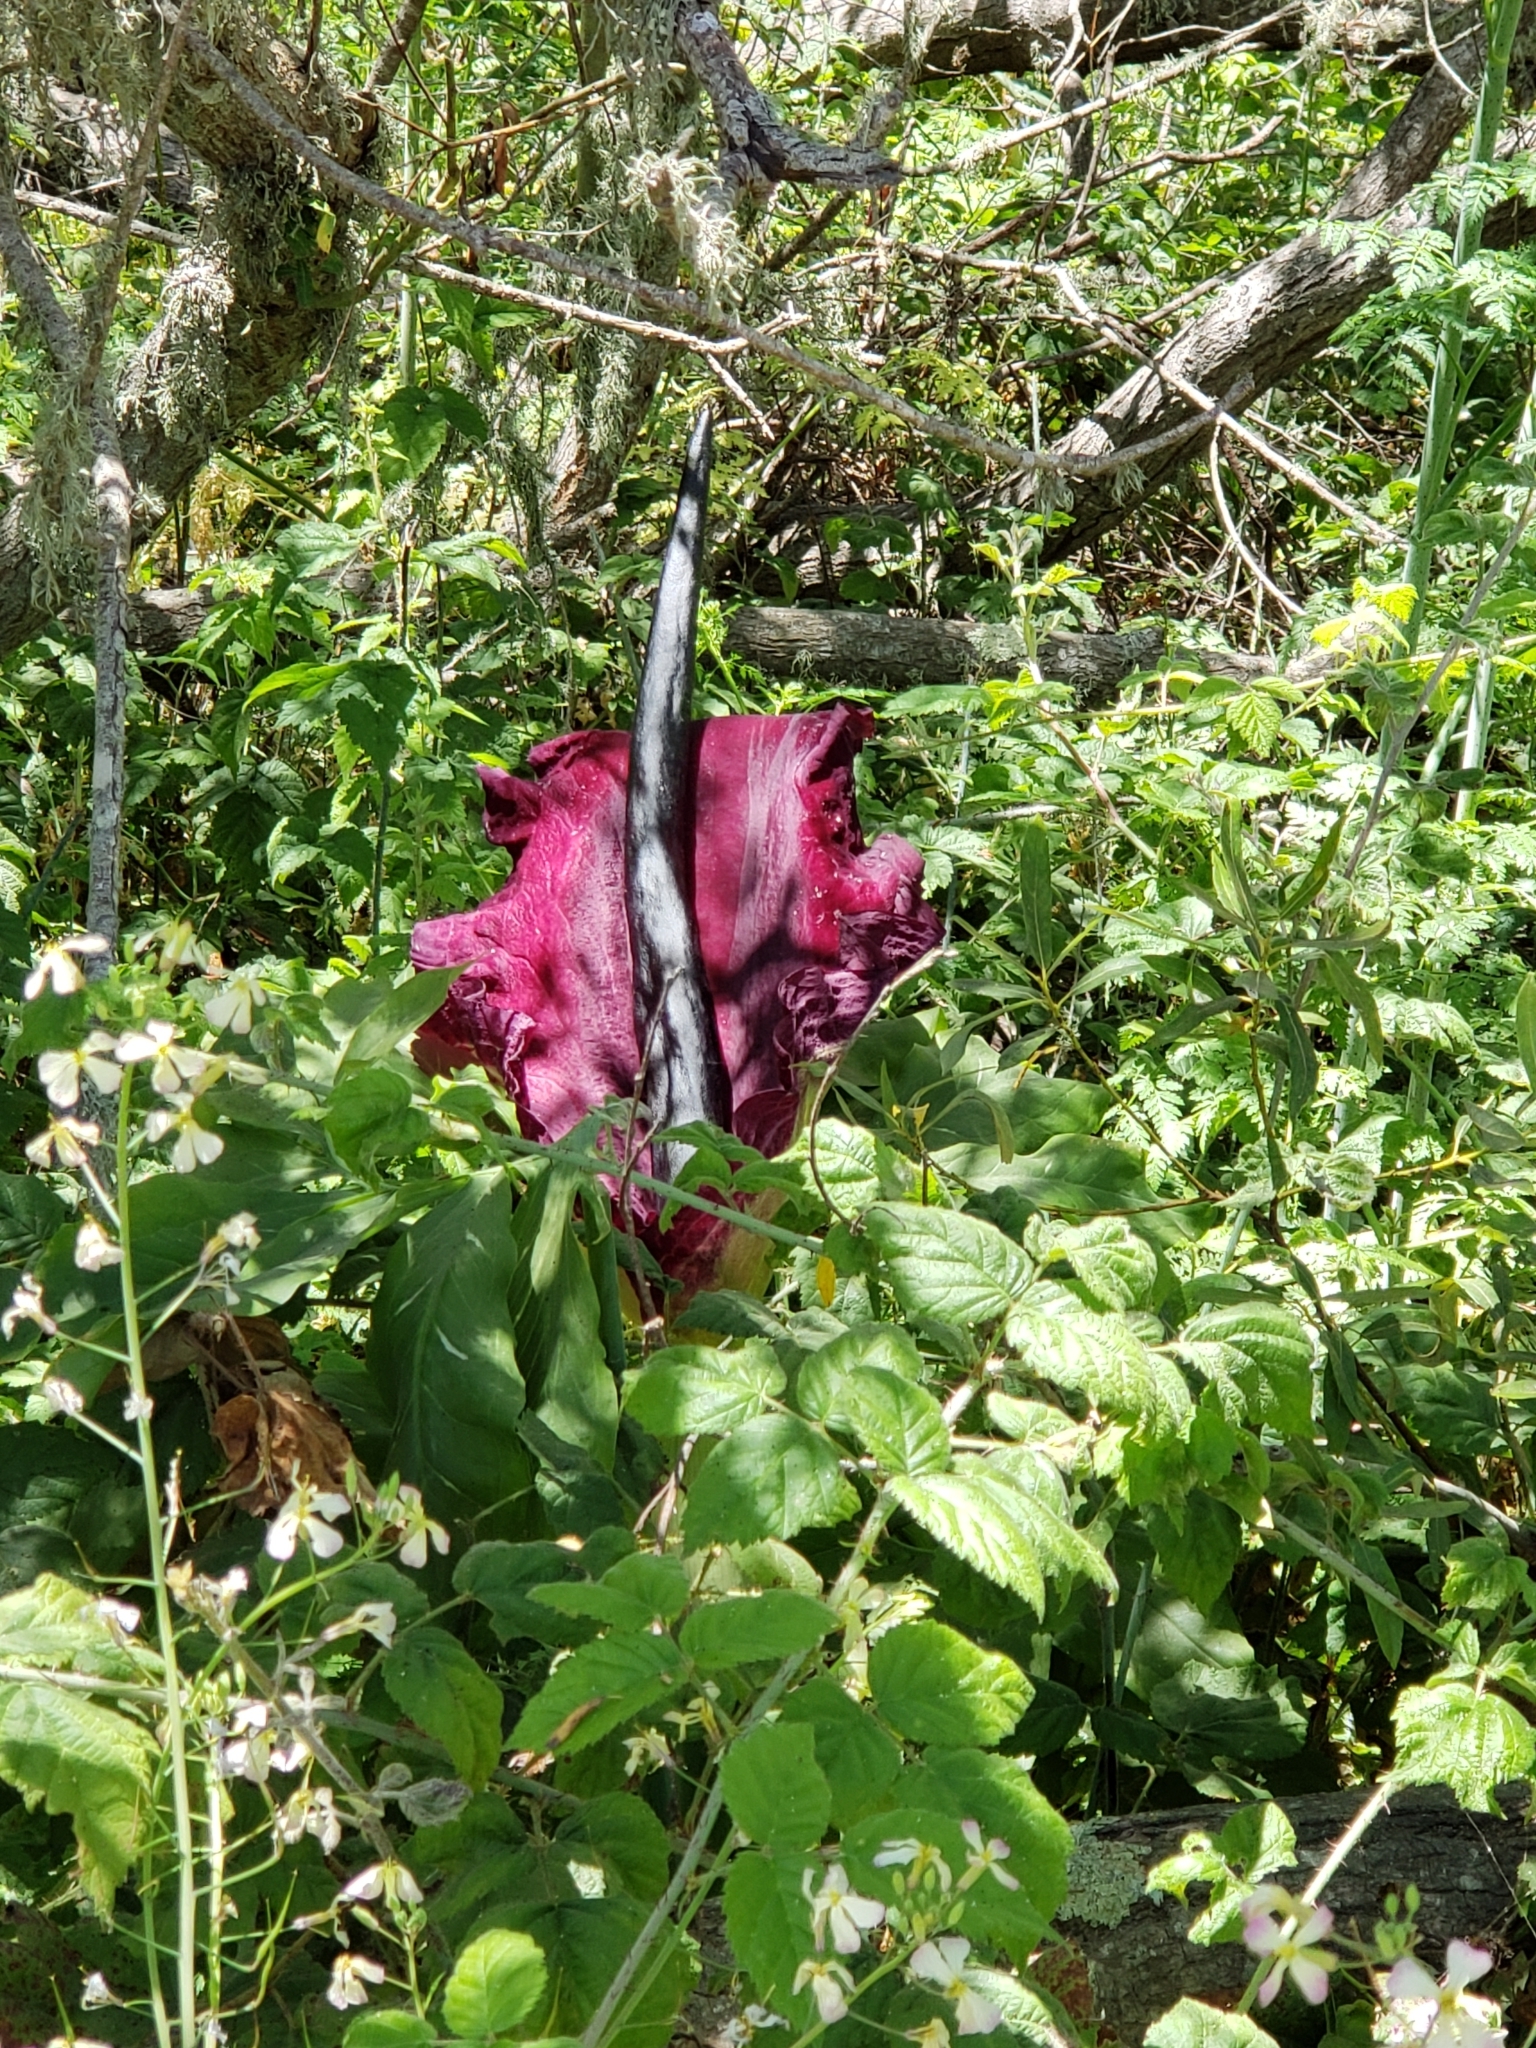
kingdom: Plantae
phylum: Tracheophyta
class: Liliopsida
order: Alismatales
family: Araceae
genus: Dracunculus
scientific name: Dracunculus vulgaris
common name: Dragon arum
